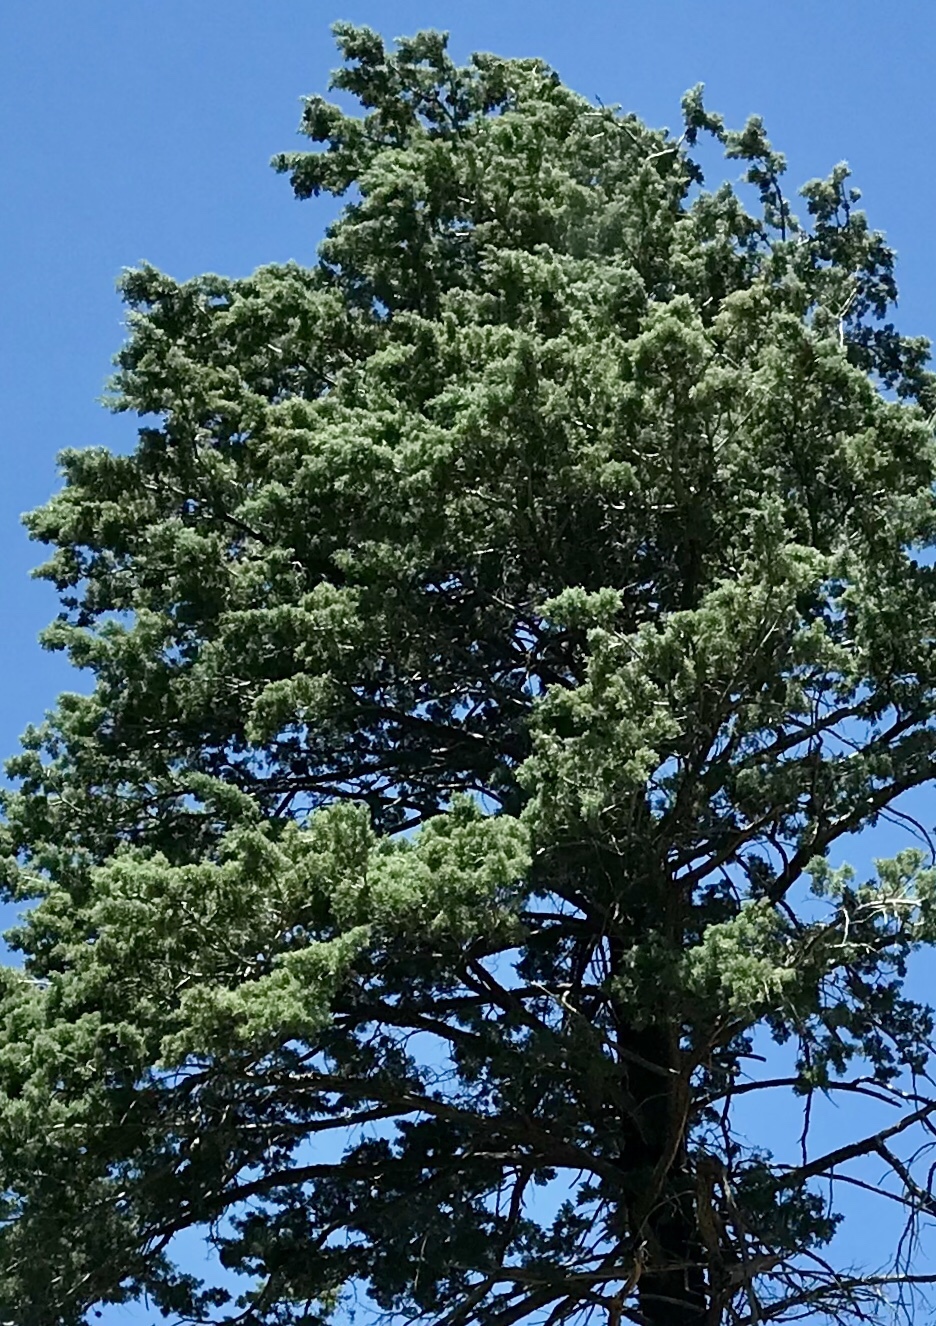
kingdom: Plantae
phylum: Tracheophyta
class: Pinopsida
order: Pinales
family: Cupressaceae
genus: Cupressus
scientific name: Cupressus arizonica
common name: Arizona cypress
